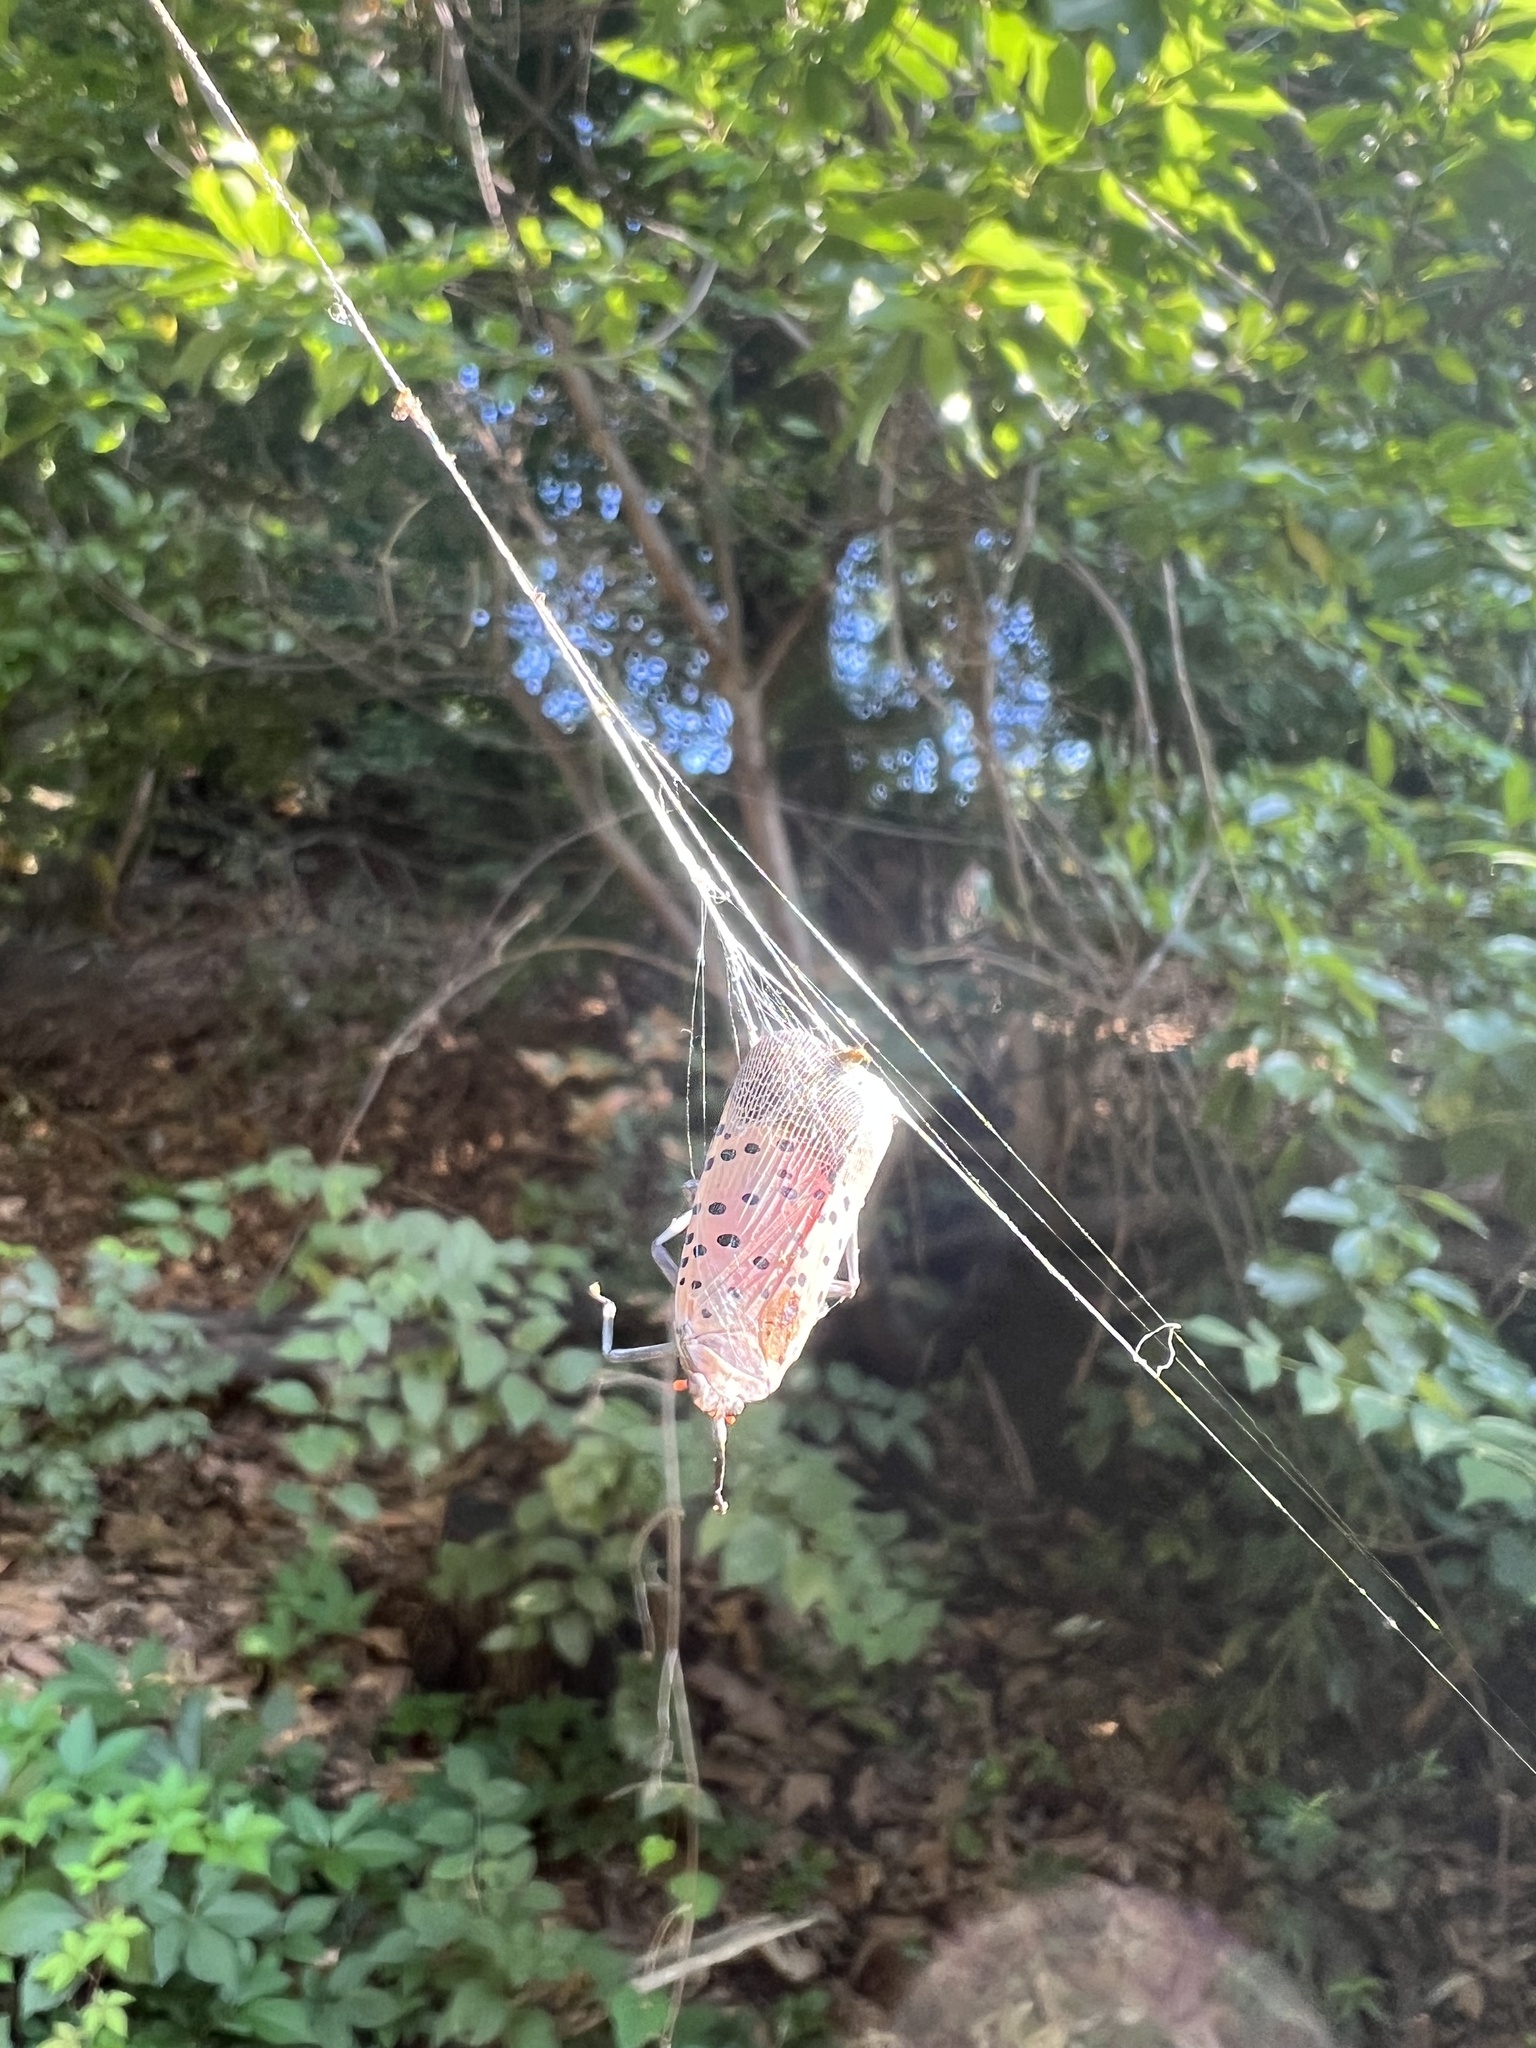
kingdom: Animalia
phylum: Arthropoda
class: Insecta
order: Hemiptera
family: Fulgoridae
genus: Lycorma
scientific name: Lycorma delicatula
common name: Spotted lanternfly
